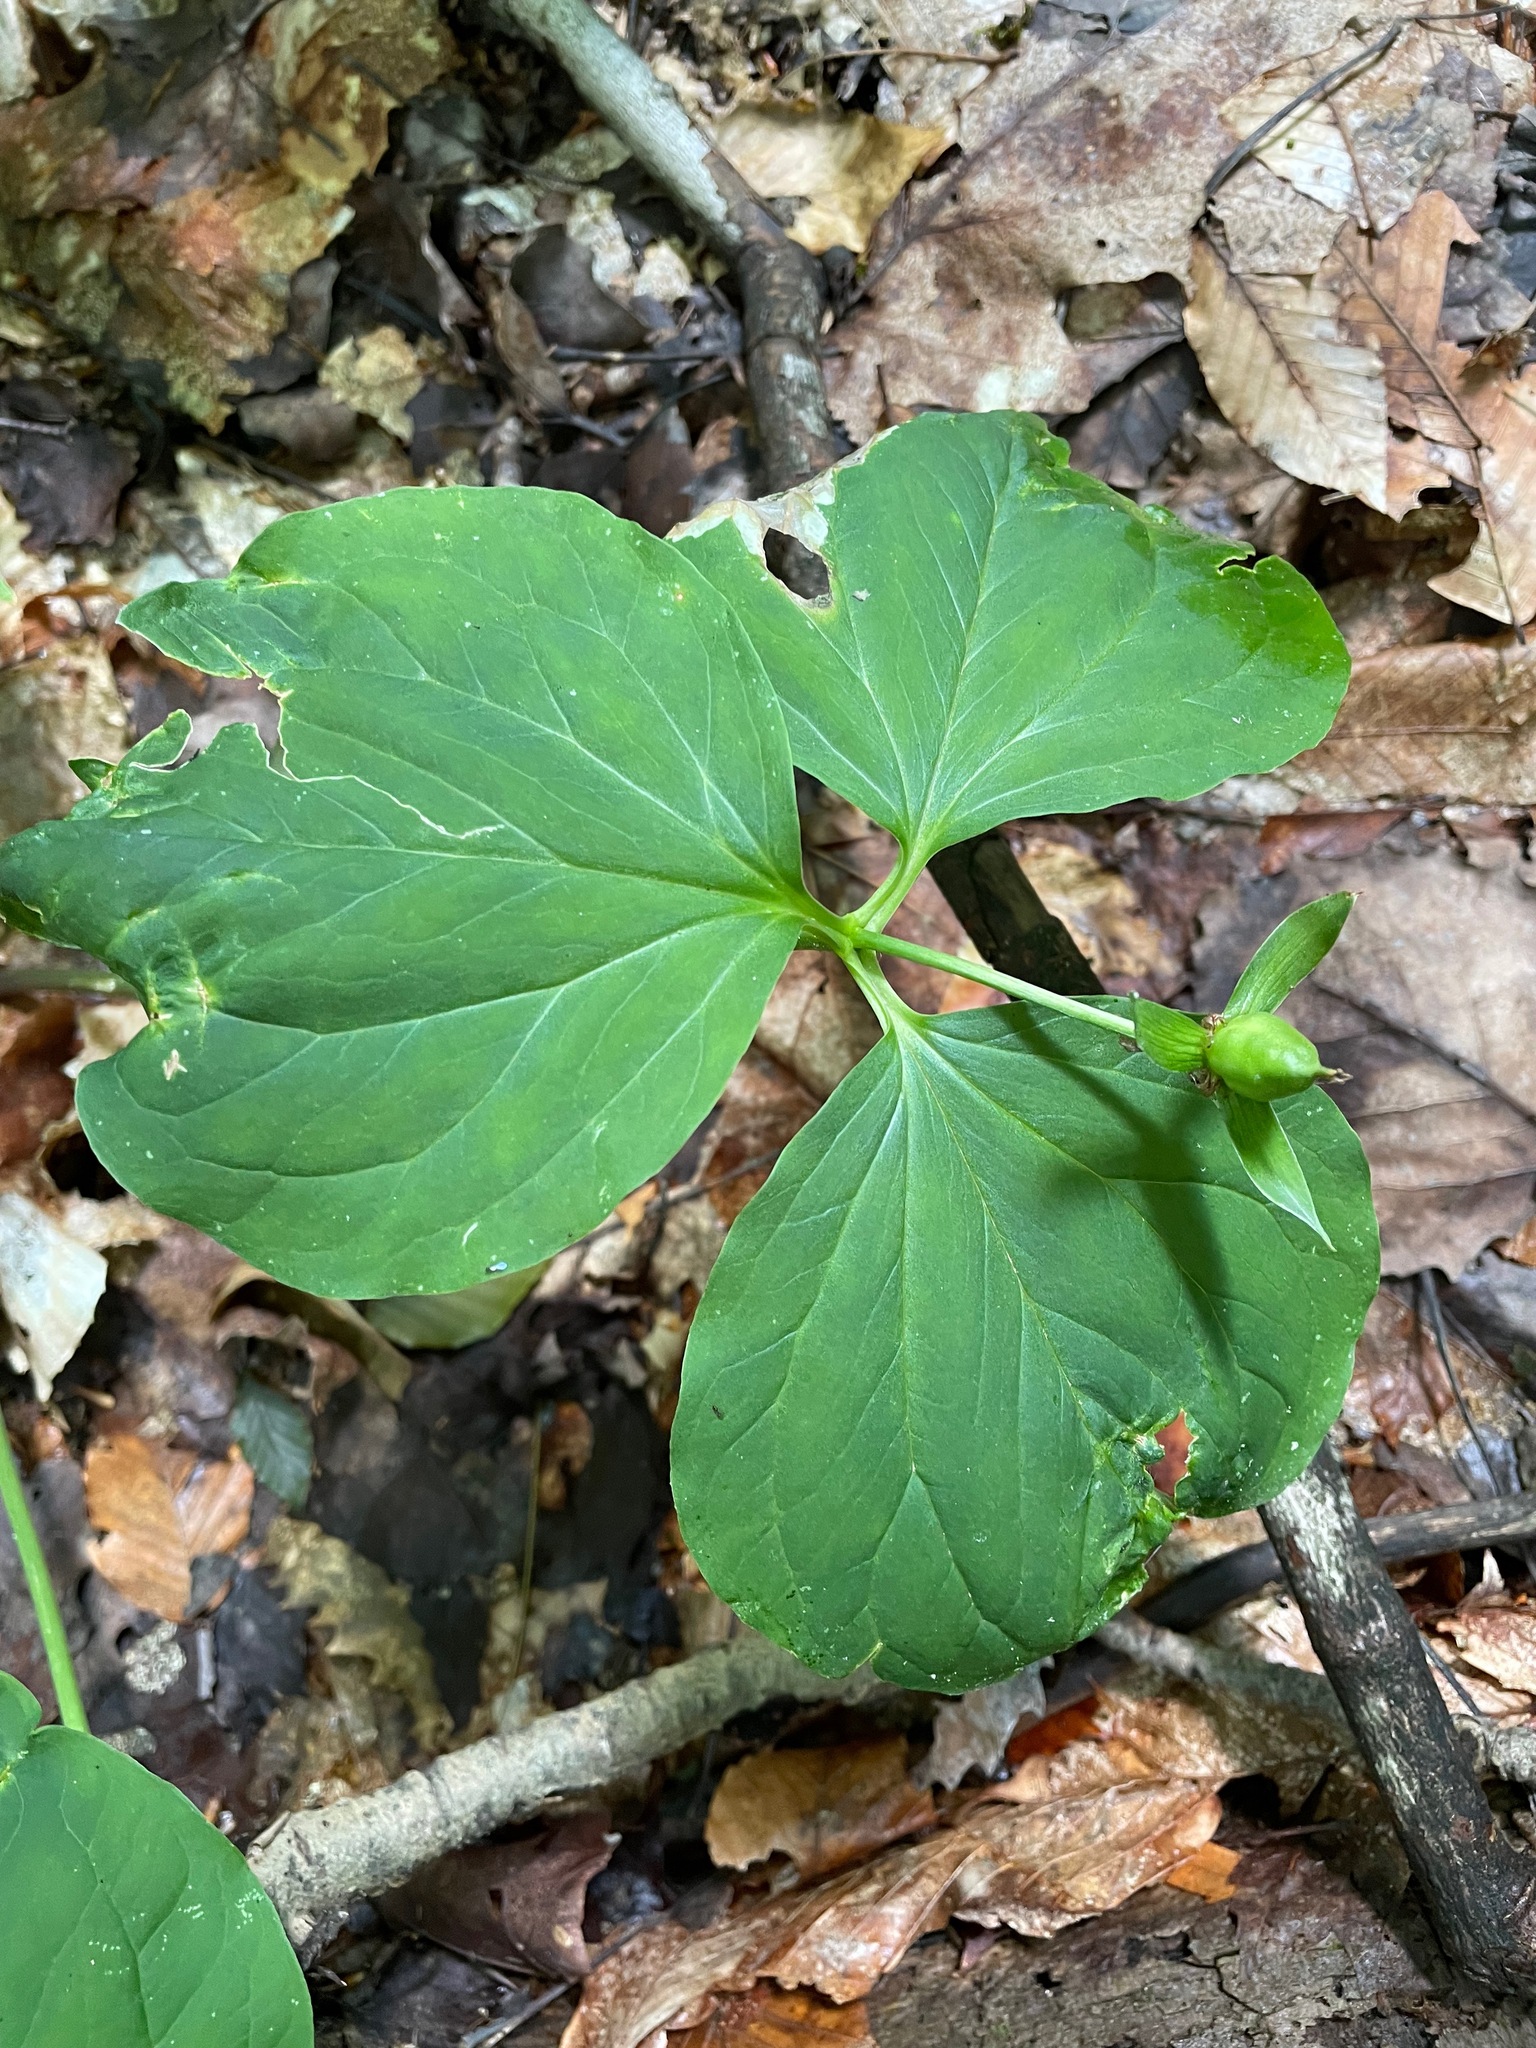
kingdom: Plantae
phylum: Tracheophyta
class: Liliopsida
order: Liliales
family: Melanthiaceae
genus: Trillium
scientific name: Trillium undulatum
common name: Paint trillium
